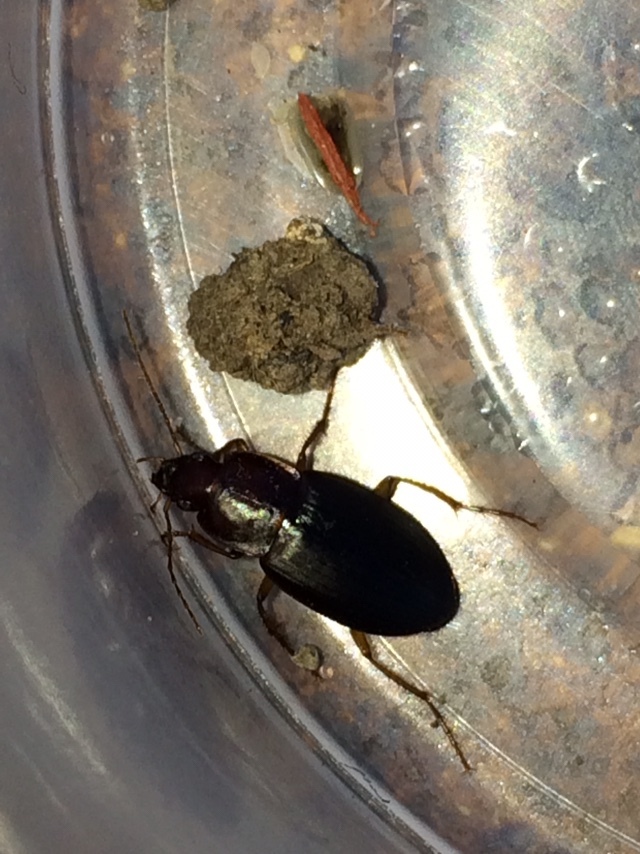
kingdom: Animalia
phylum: Arthropoda
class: Insecta
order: Coleoptera
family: Carabidae
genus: Calathus
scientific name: Calathus ruficollis
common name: Red-collared harp ground beetle
